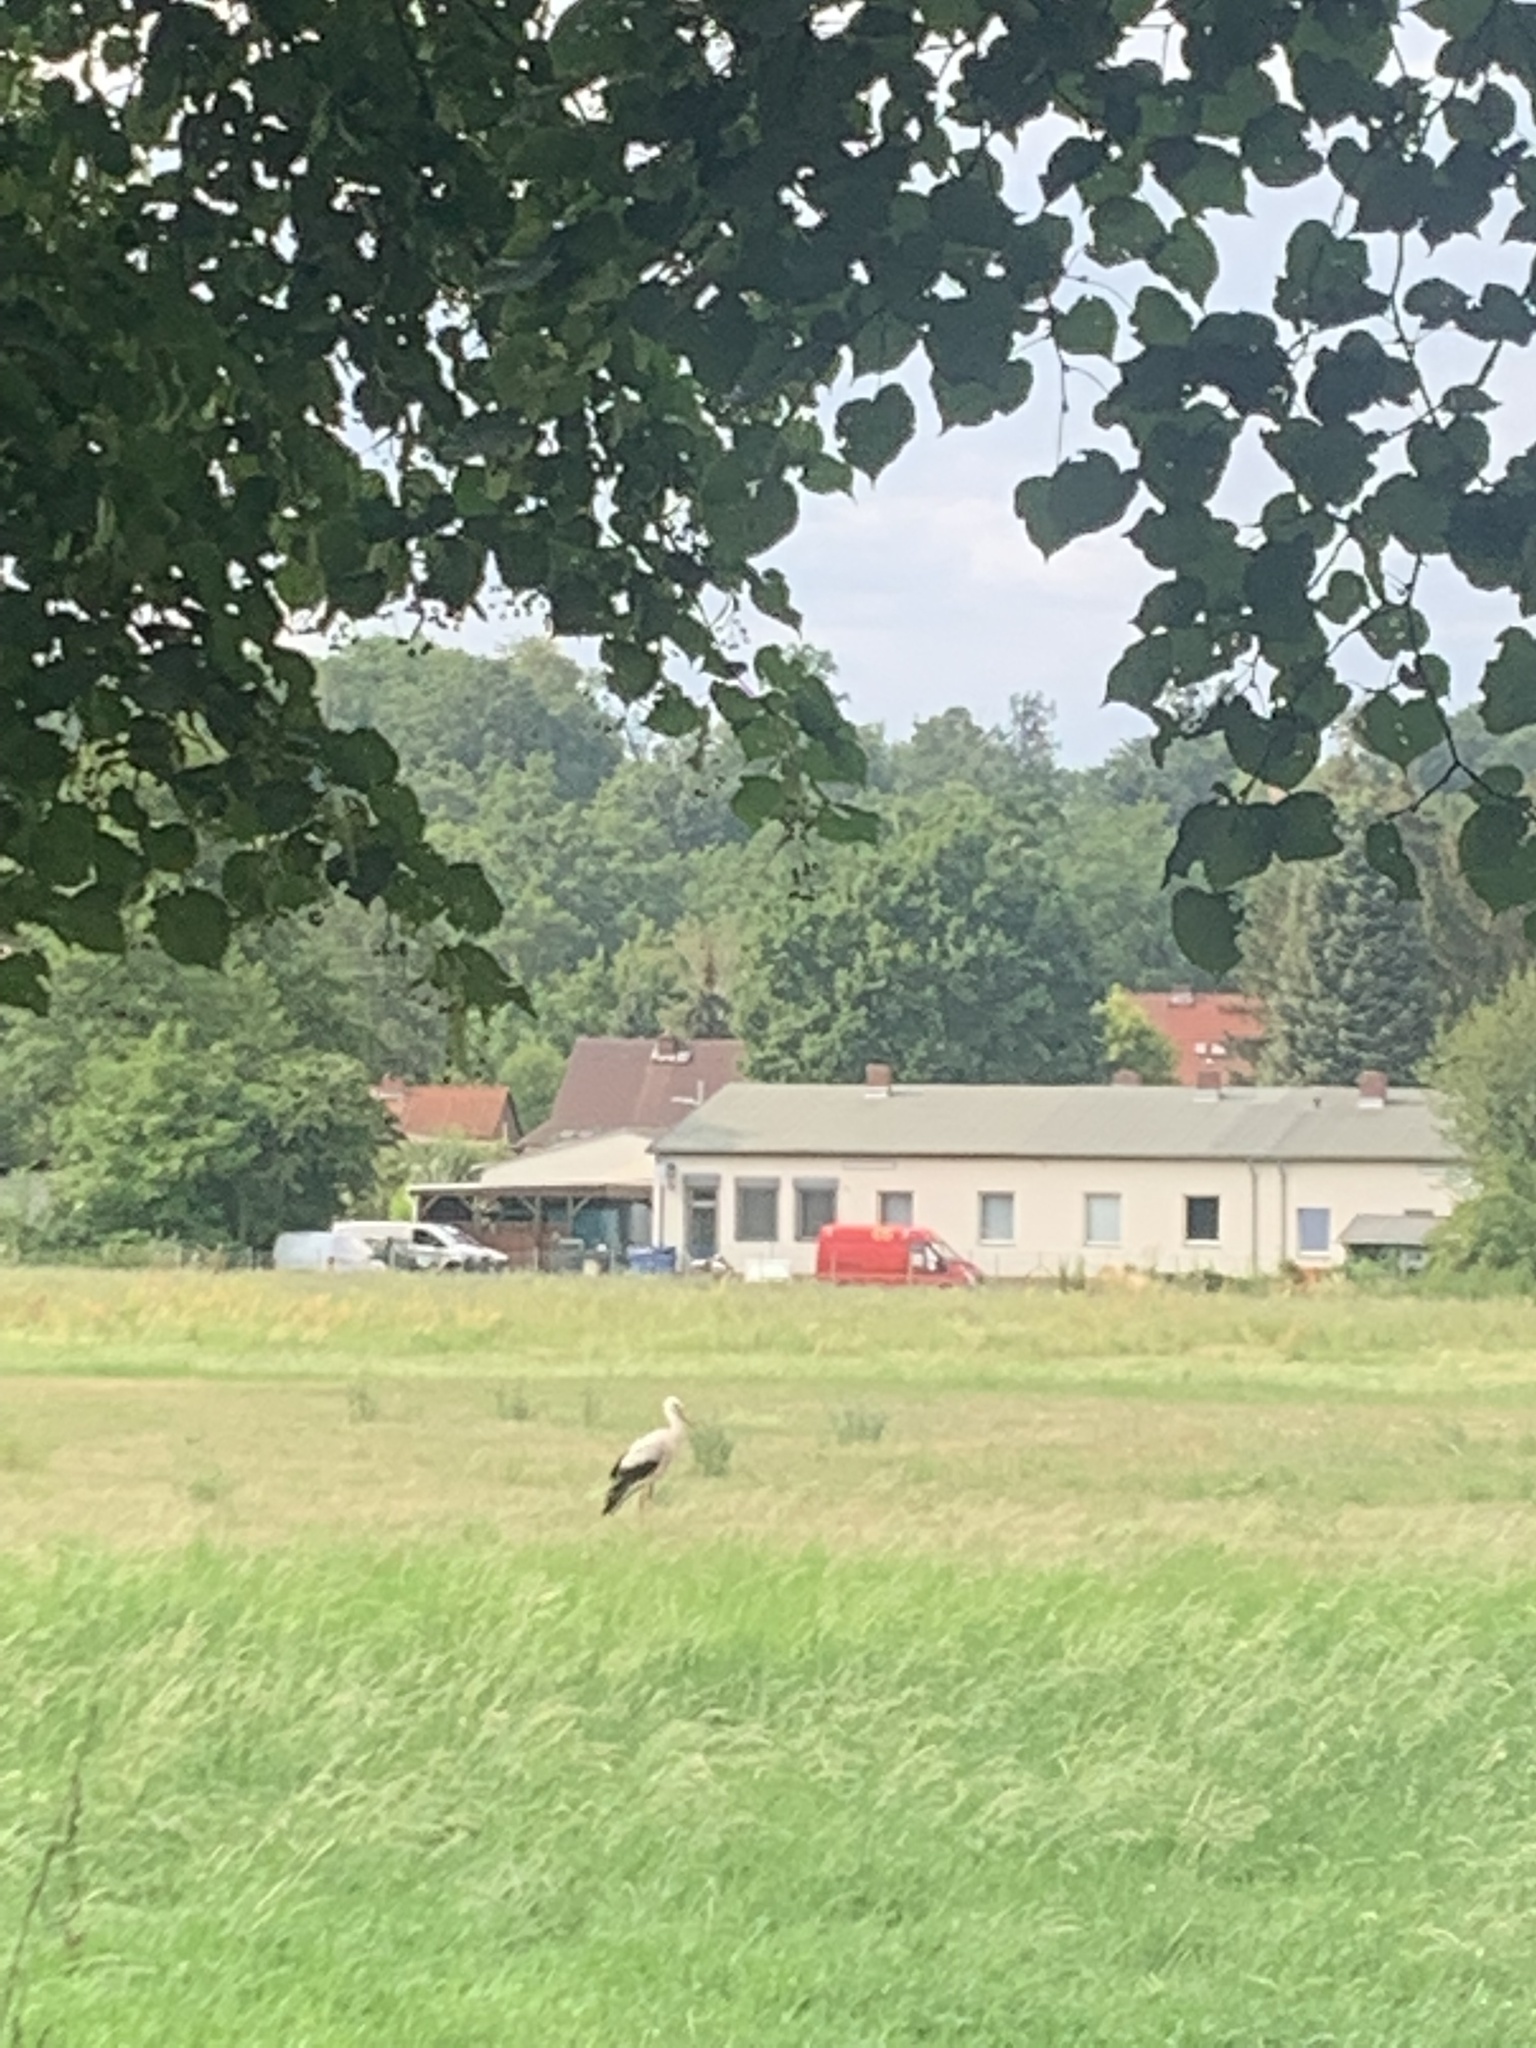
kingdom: Animalia
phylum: Chordata
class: Aves
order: Ciconiiformes
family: Ciconiidae
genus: Ciconia
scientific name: Ciconia ciconia
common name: White stork
